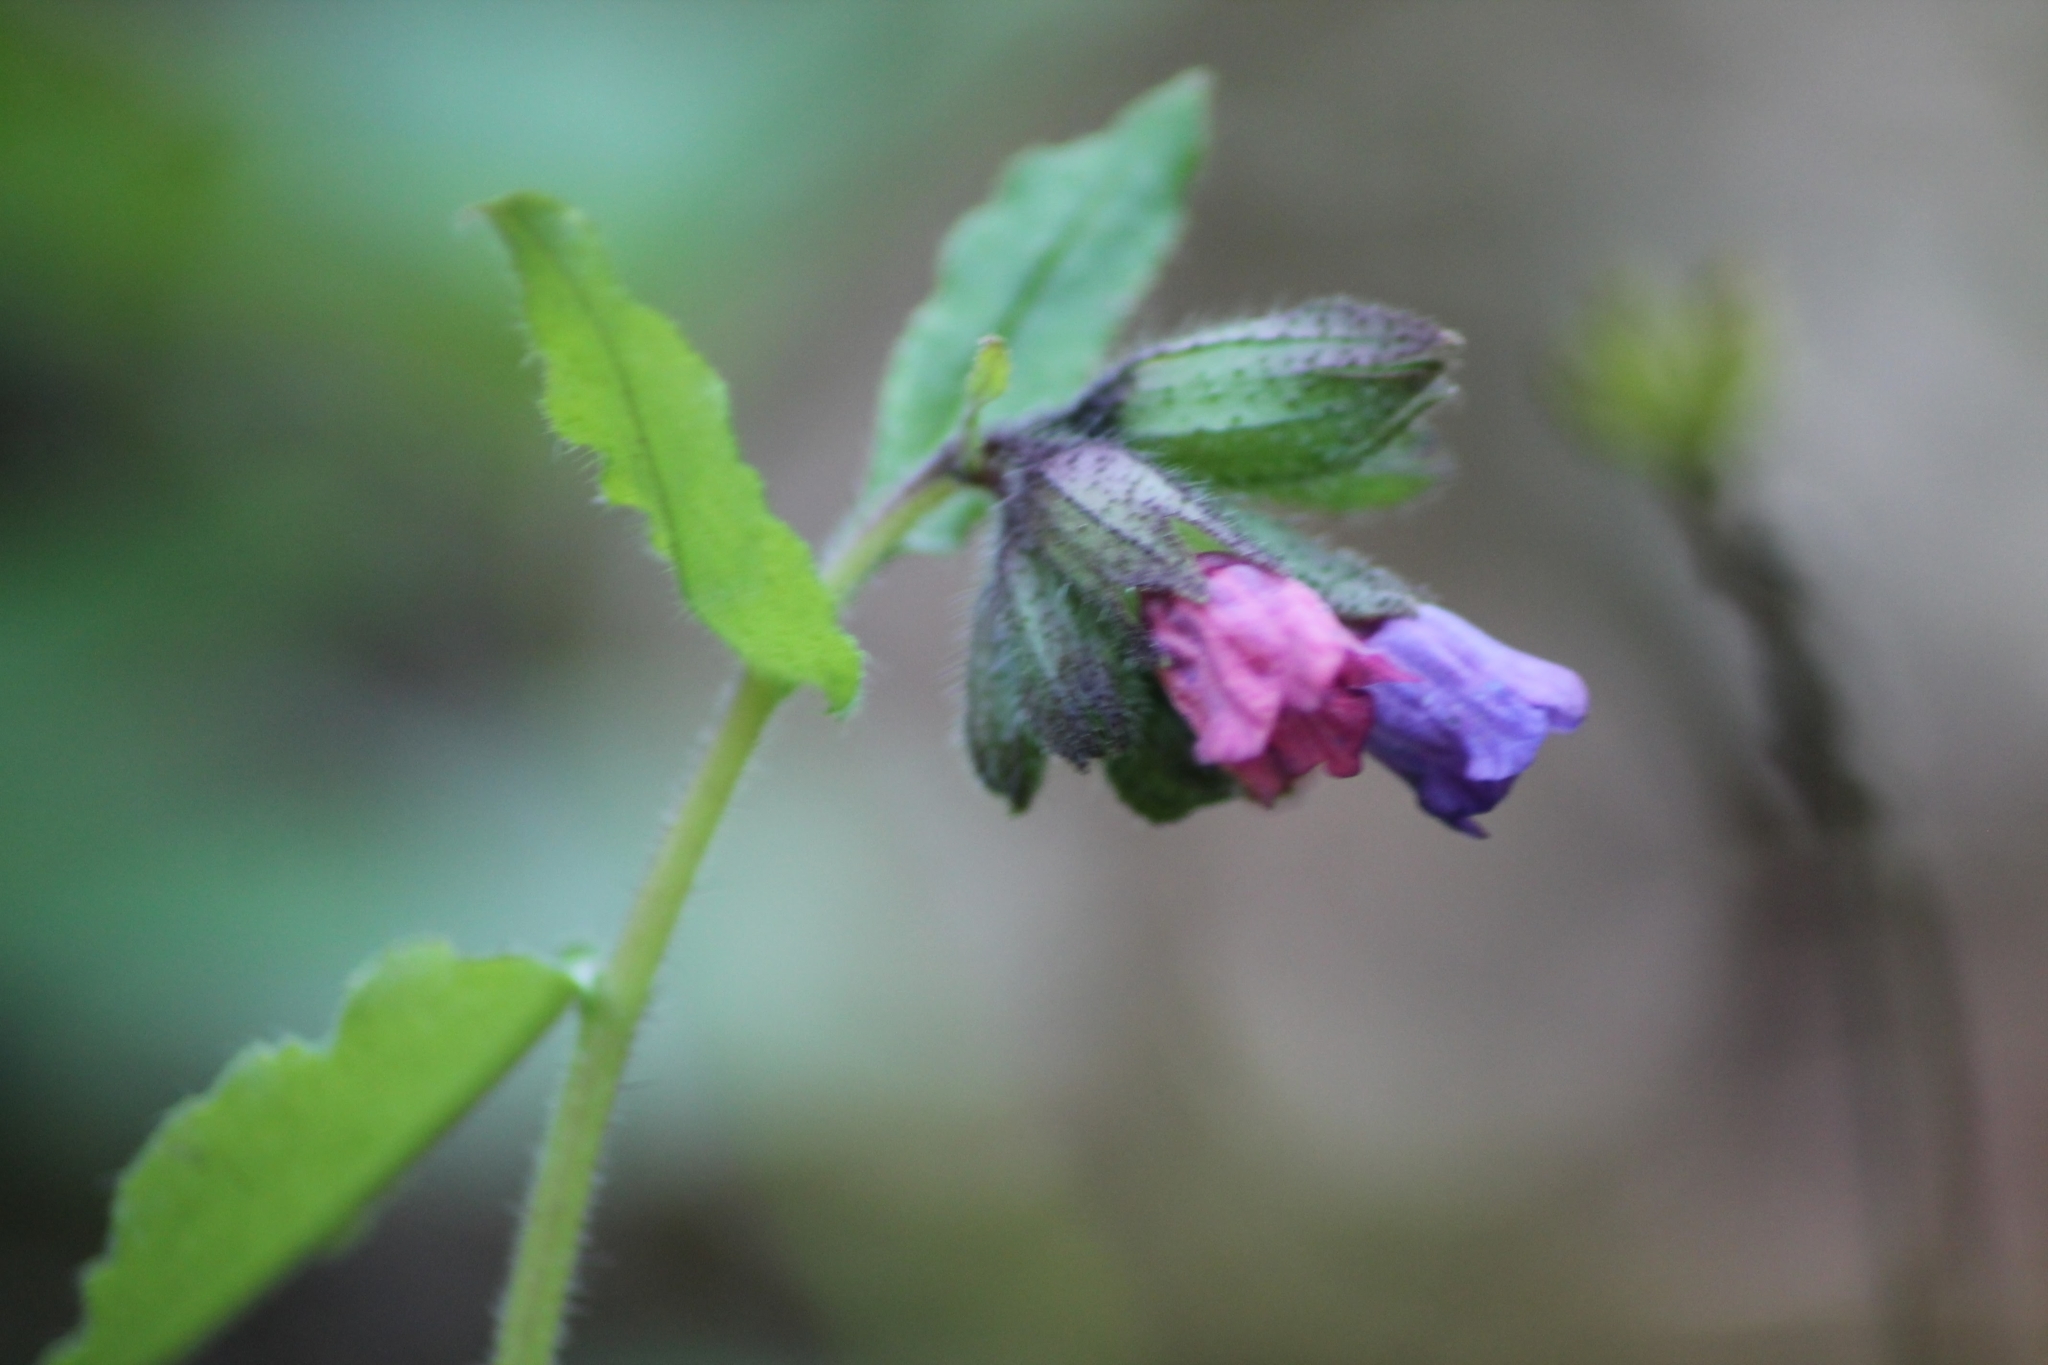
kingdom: Plantae
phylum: Tracheophyta
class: Magnoliopsida
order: Boraginales
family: Boraginaceae
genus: Pulmonaria
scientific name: Pulmonaria obscura
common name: Suffolk lungwort
